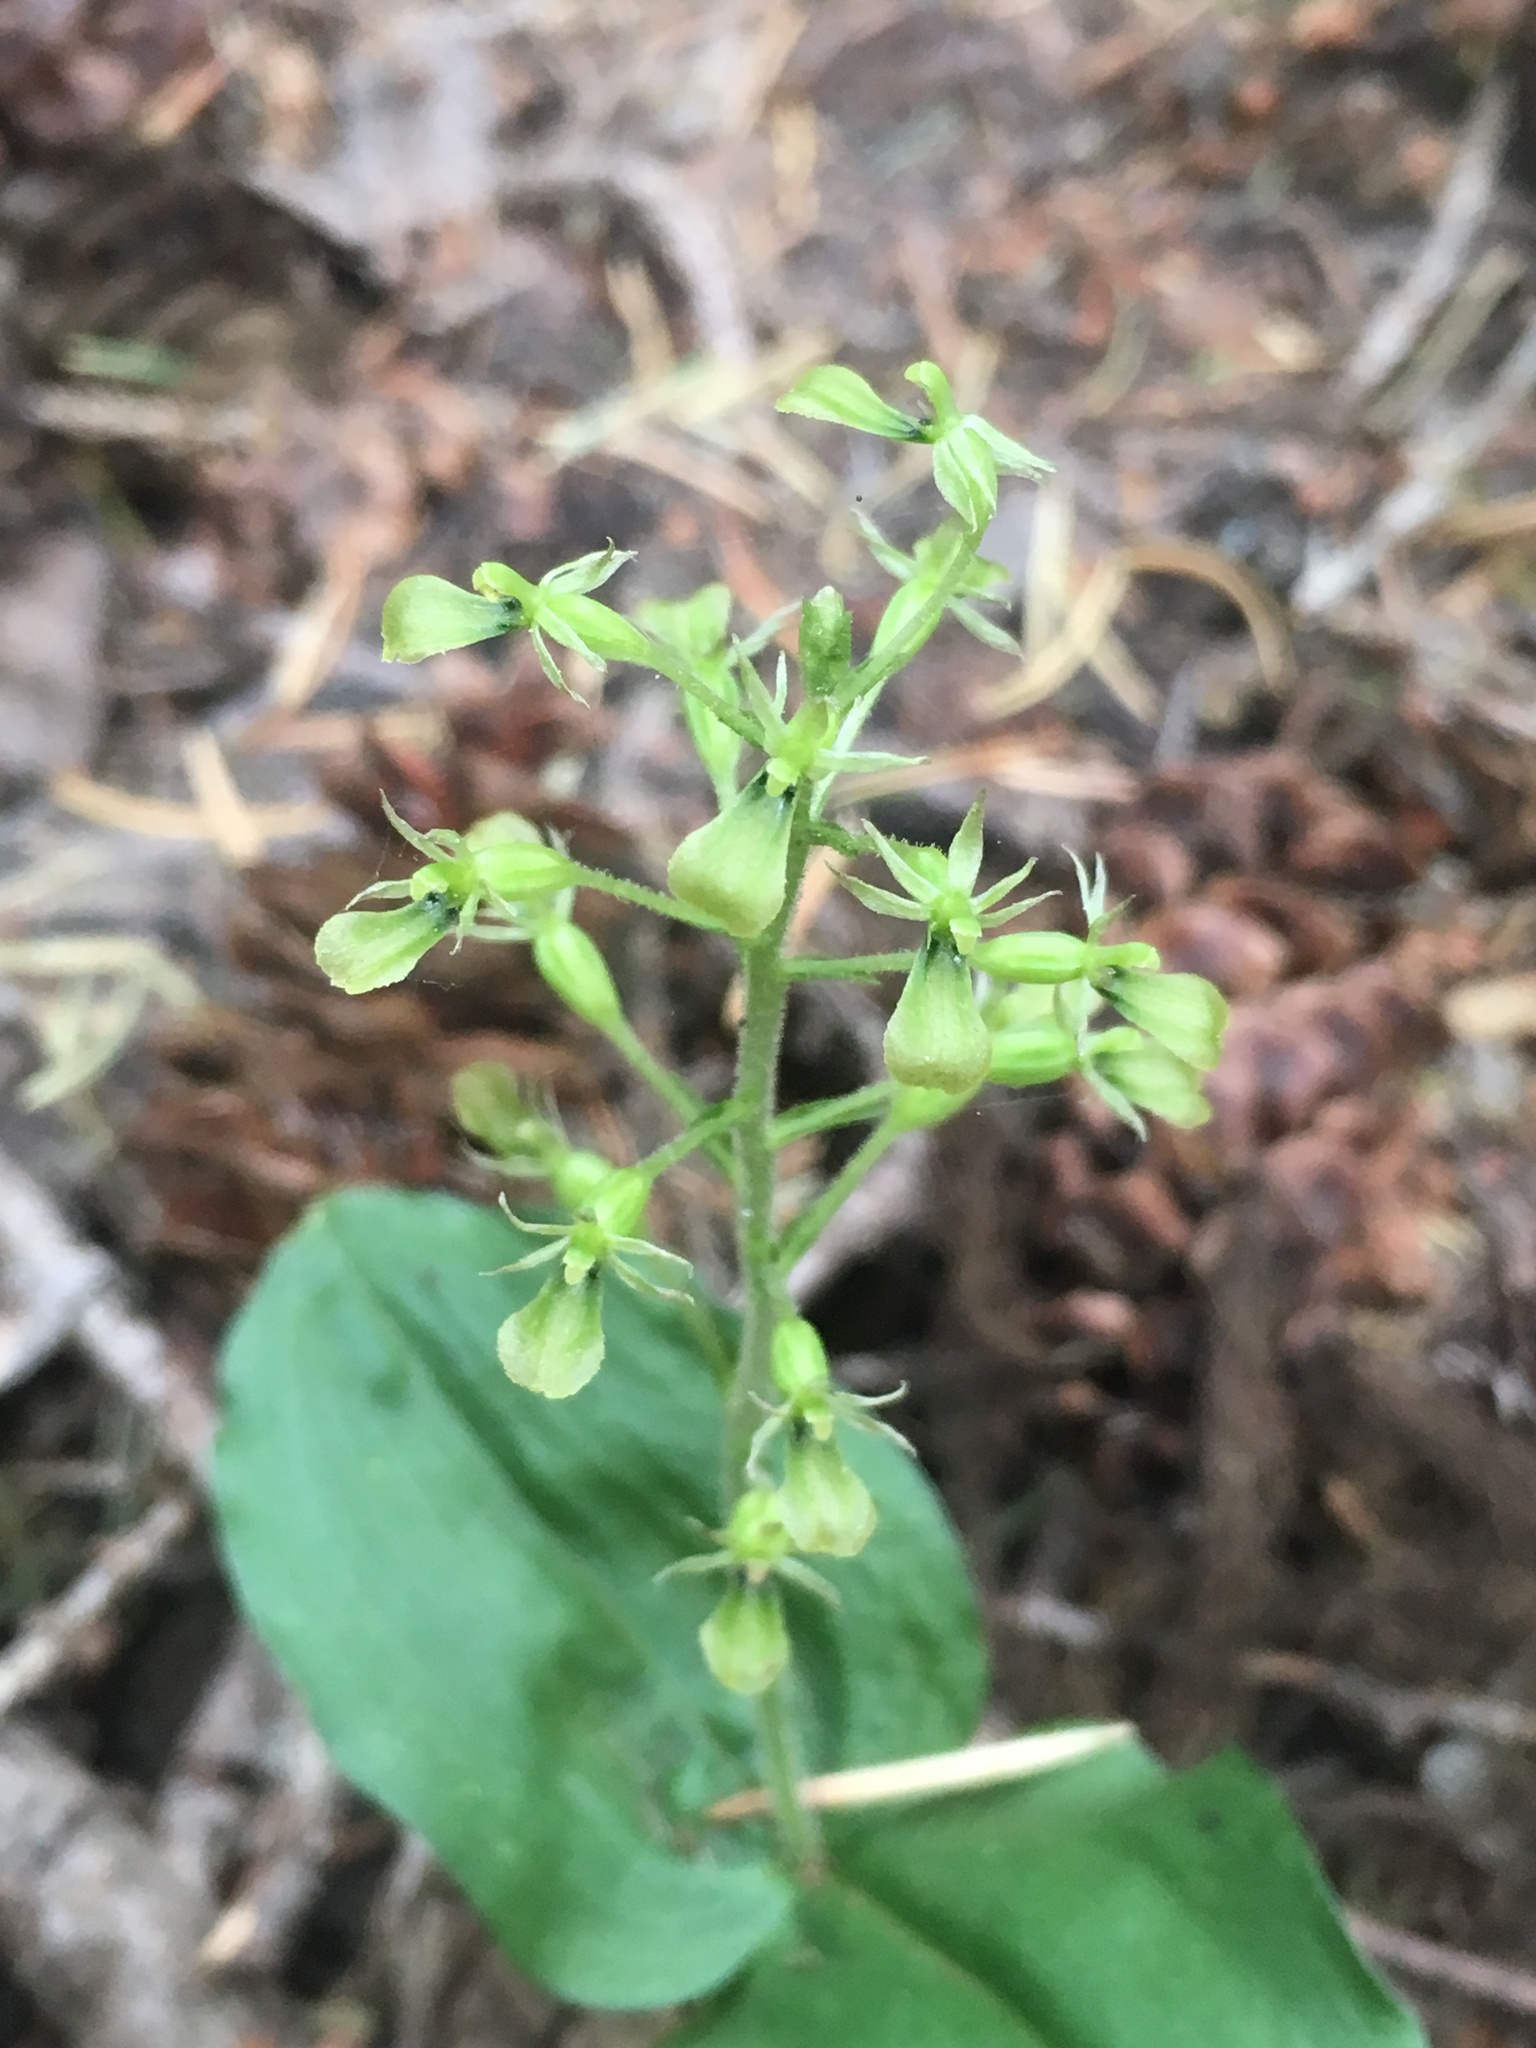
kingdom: Plantae
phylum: Tracheophyta
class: Liliopsida
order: Asparagales
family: Orchidaceae
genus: Neottia
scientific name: Neottia banksiana
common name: Northwestern twayblade
